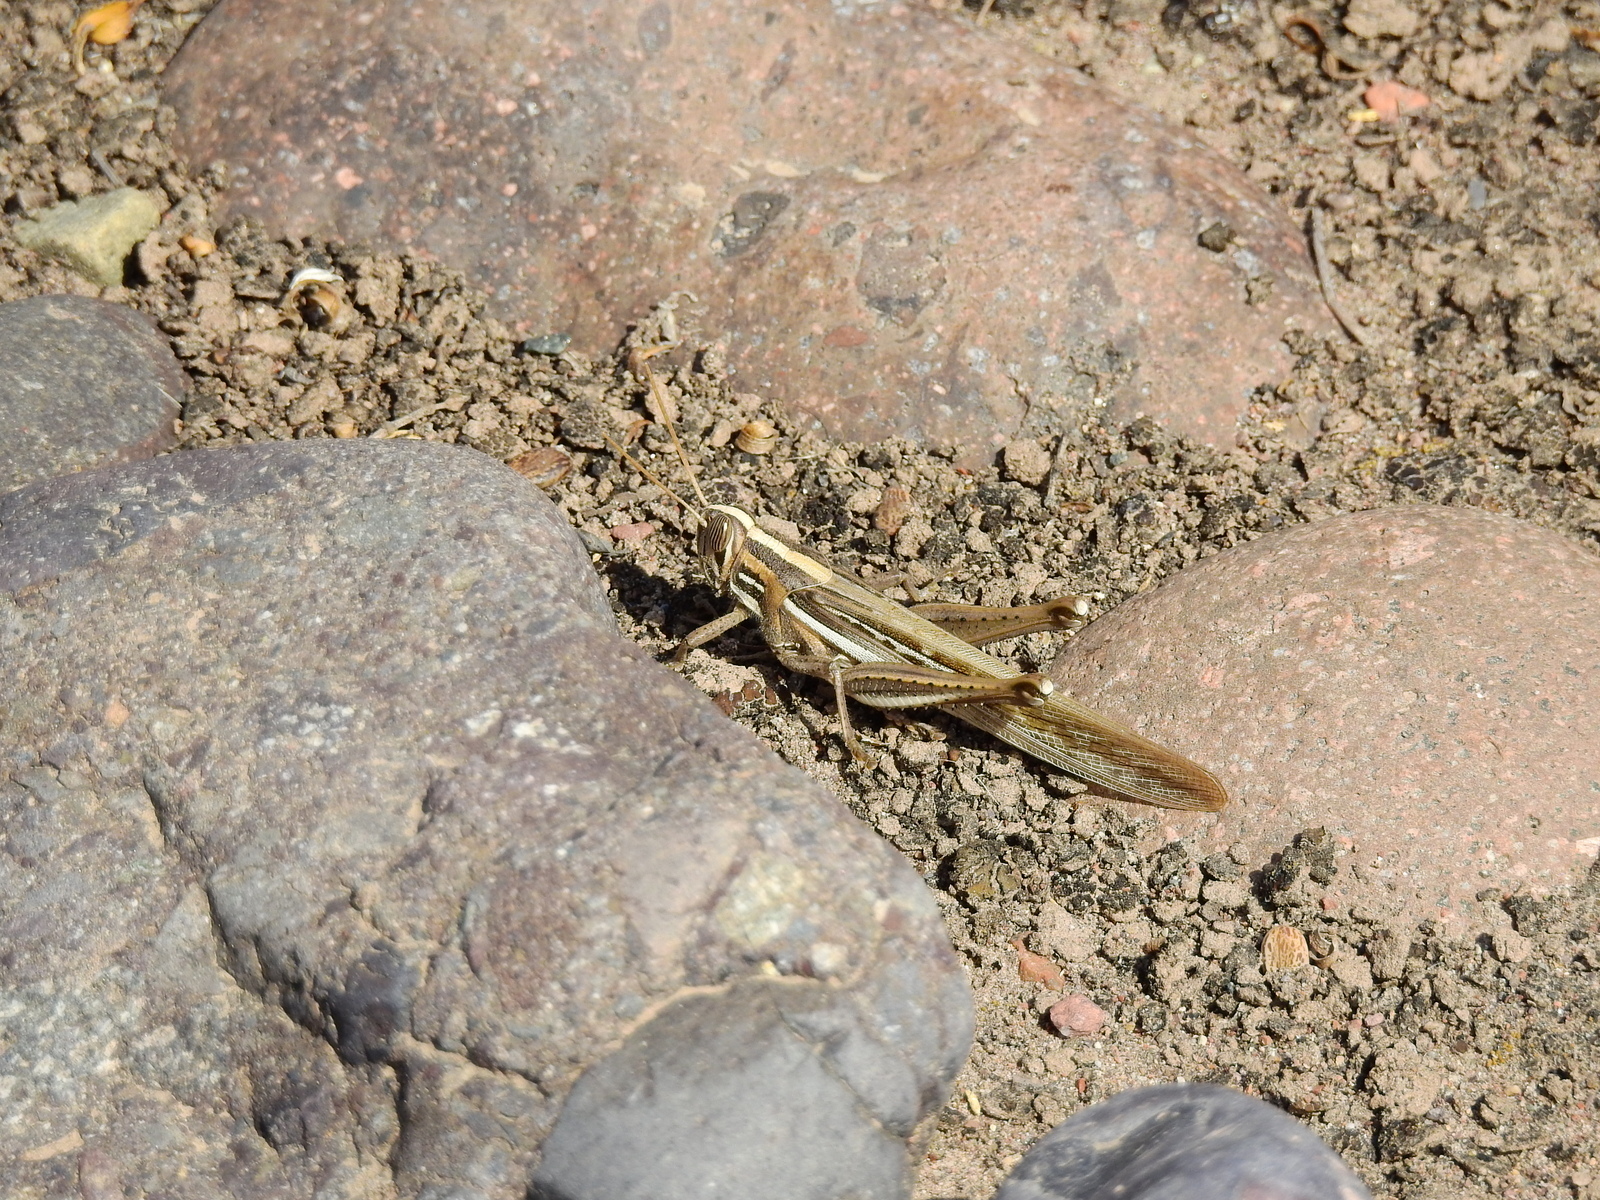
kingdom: Animalia
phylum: Arthropoda
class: Insecta
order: Orthoptera
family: Acrididae
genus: Schistocerca
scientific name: Schistocerca cancellata
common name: South american locust
